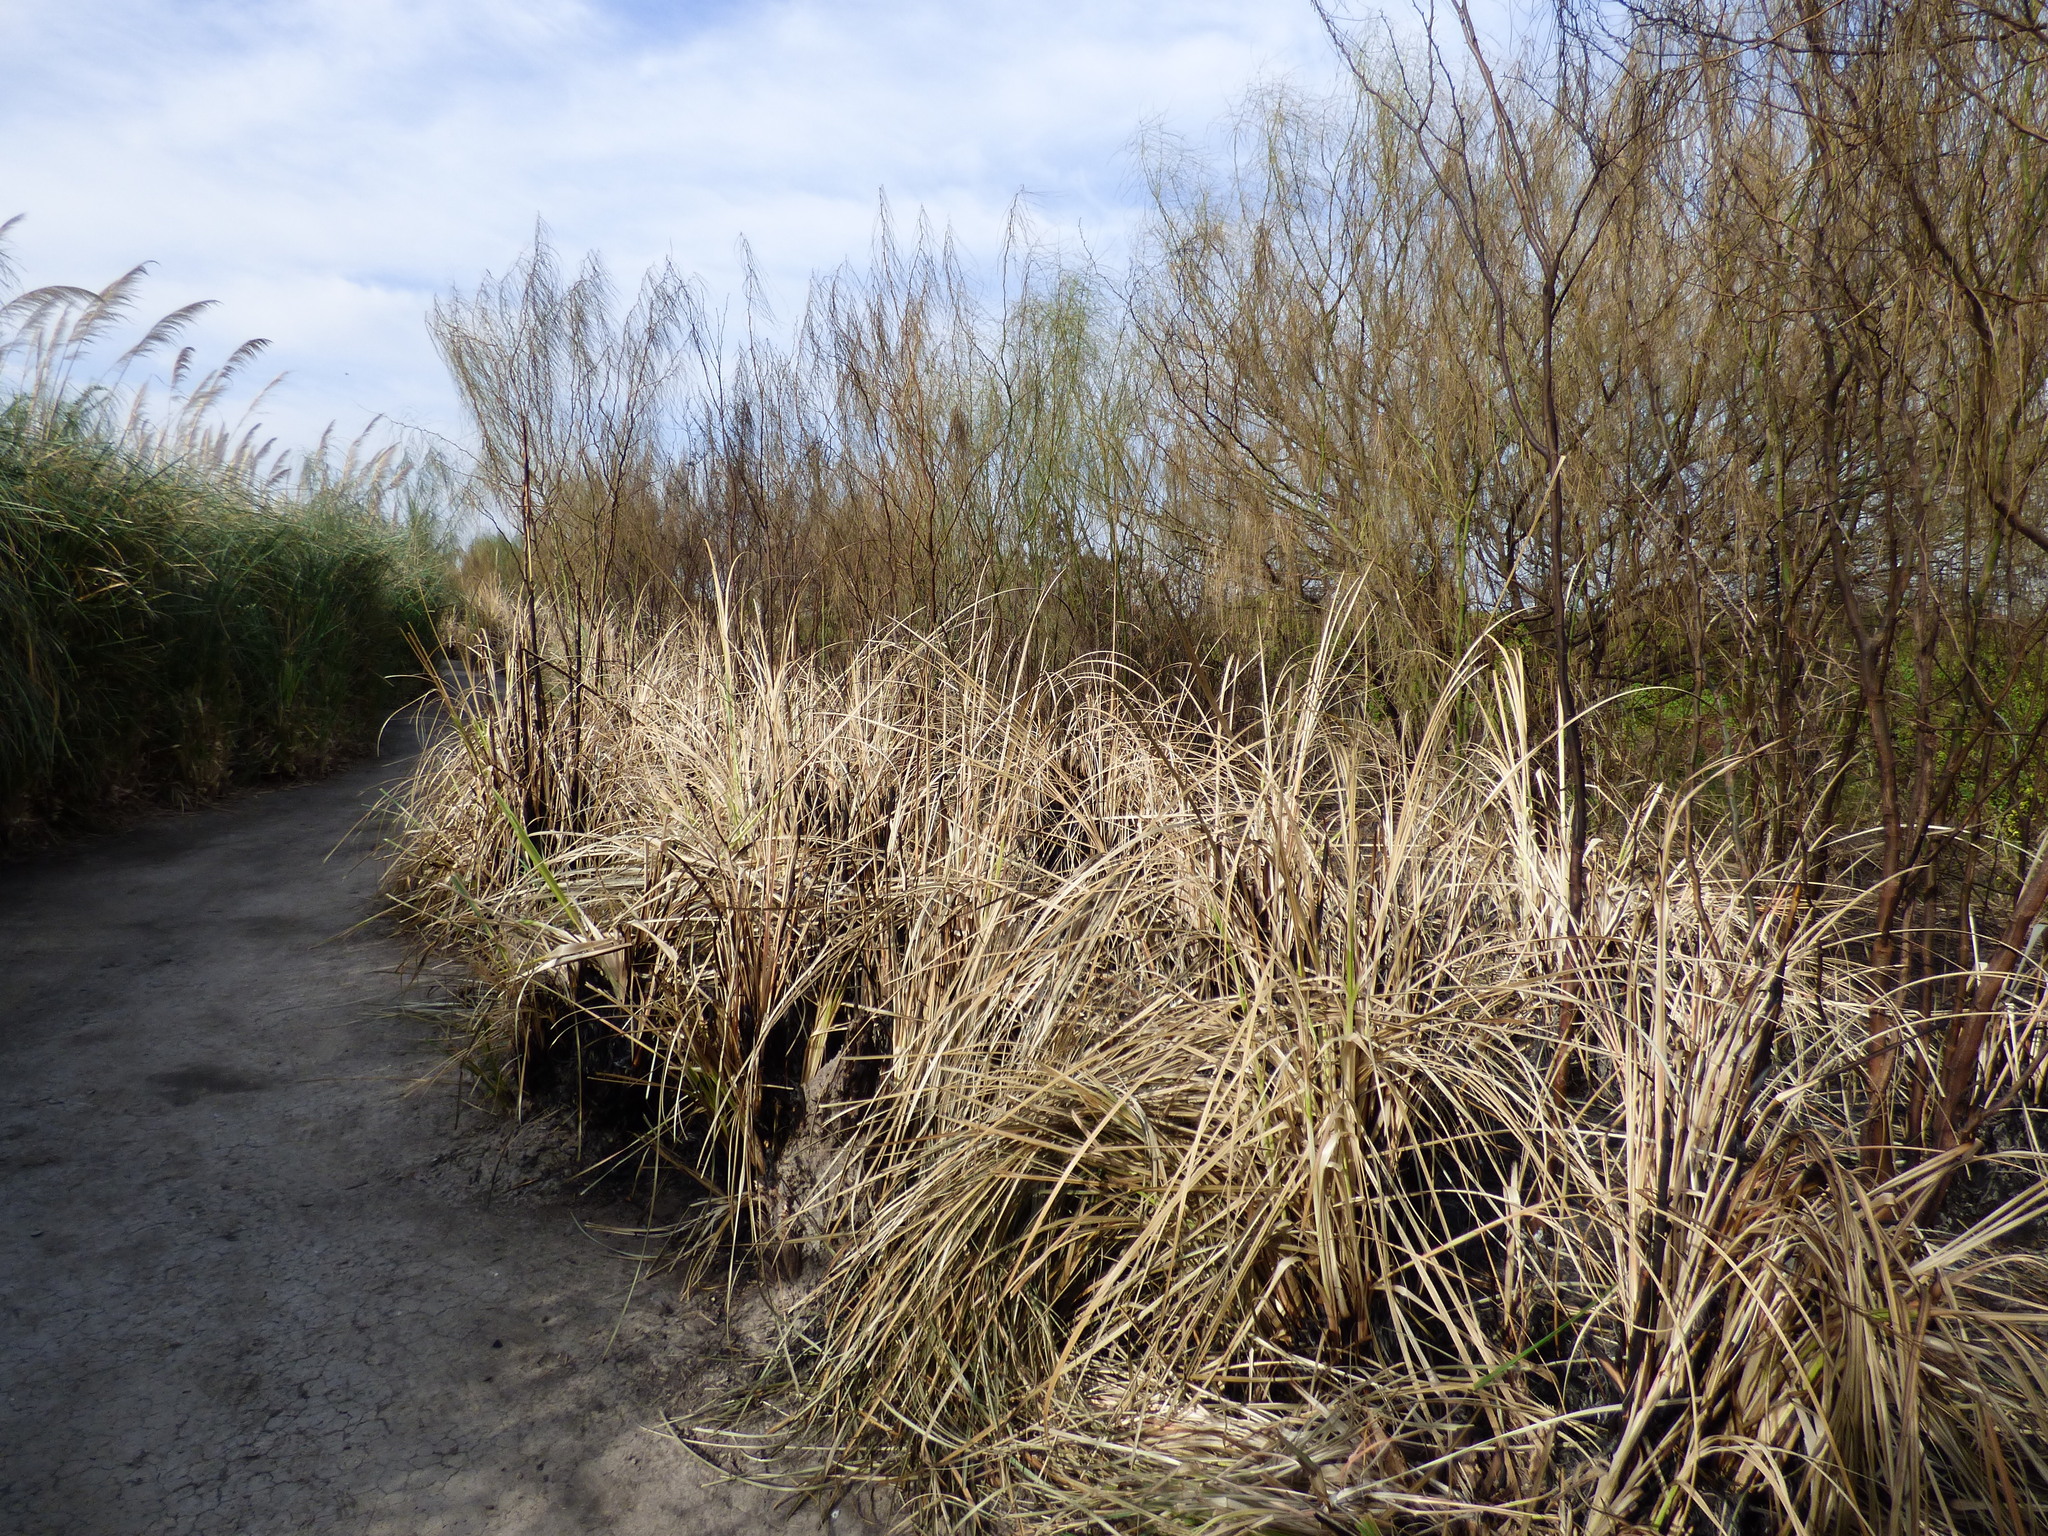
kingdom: Plantae
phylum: Tracheophyta
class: Magnoliopsida
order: Fabales
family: Fabaceae
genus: Parkinsonia
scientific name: Parkinsonia aculeata
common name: Jerusalem thorn
